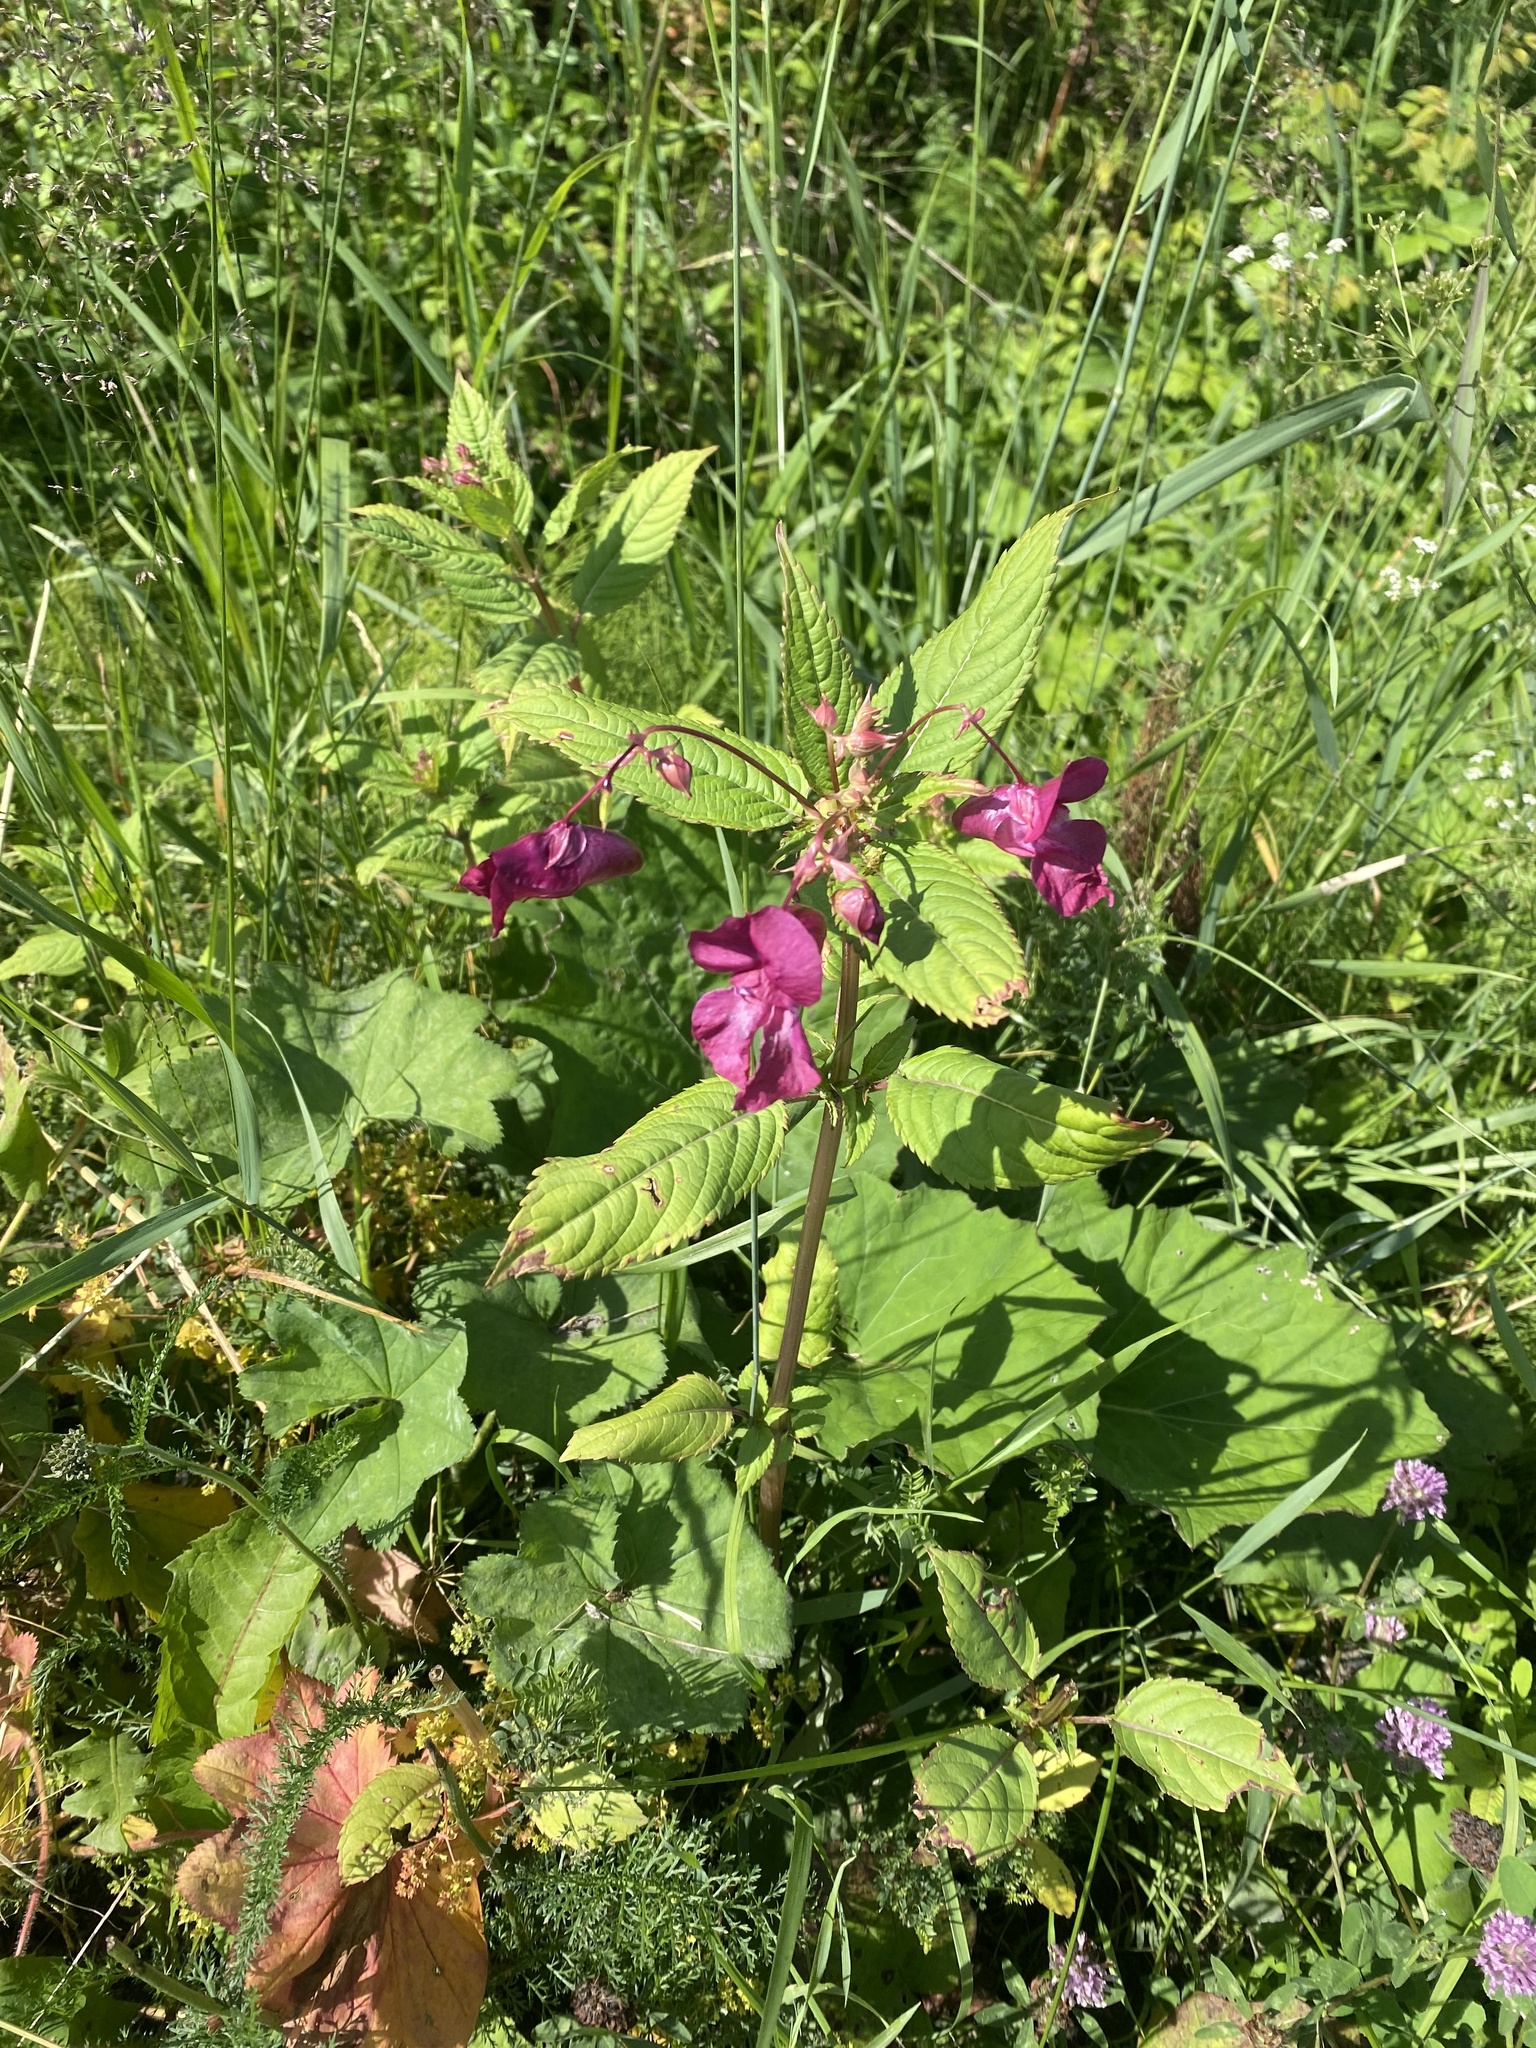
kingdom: Plantae
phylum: Tracheophyta
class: Magnoliopsida
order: Ericales
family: Balsaminaceae
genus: Impatiens
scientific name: Impatiens glandulifera
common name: Himalayan balsam
